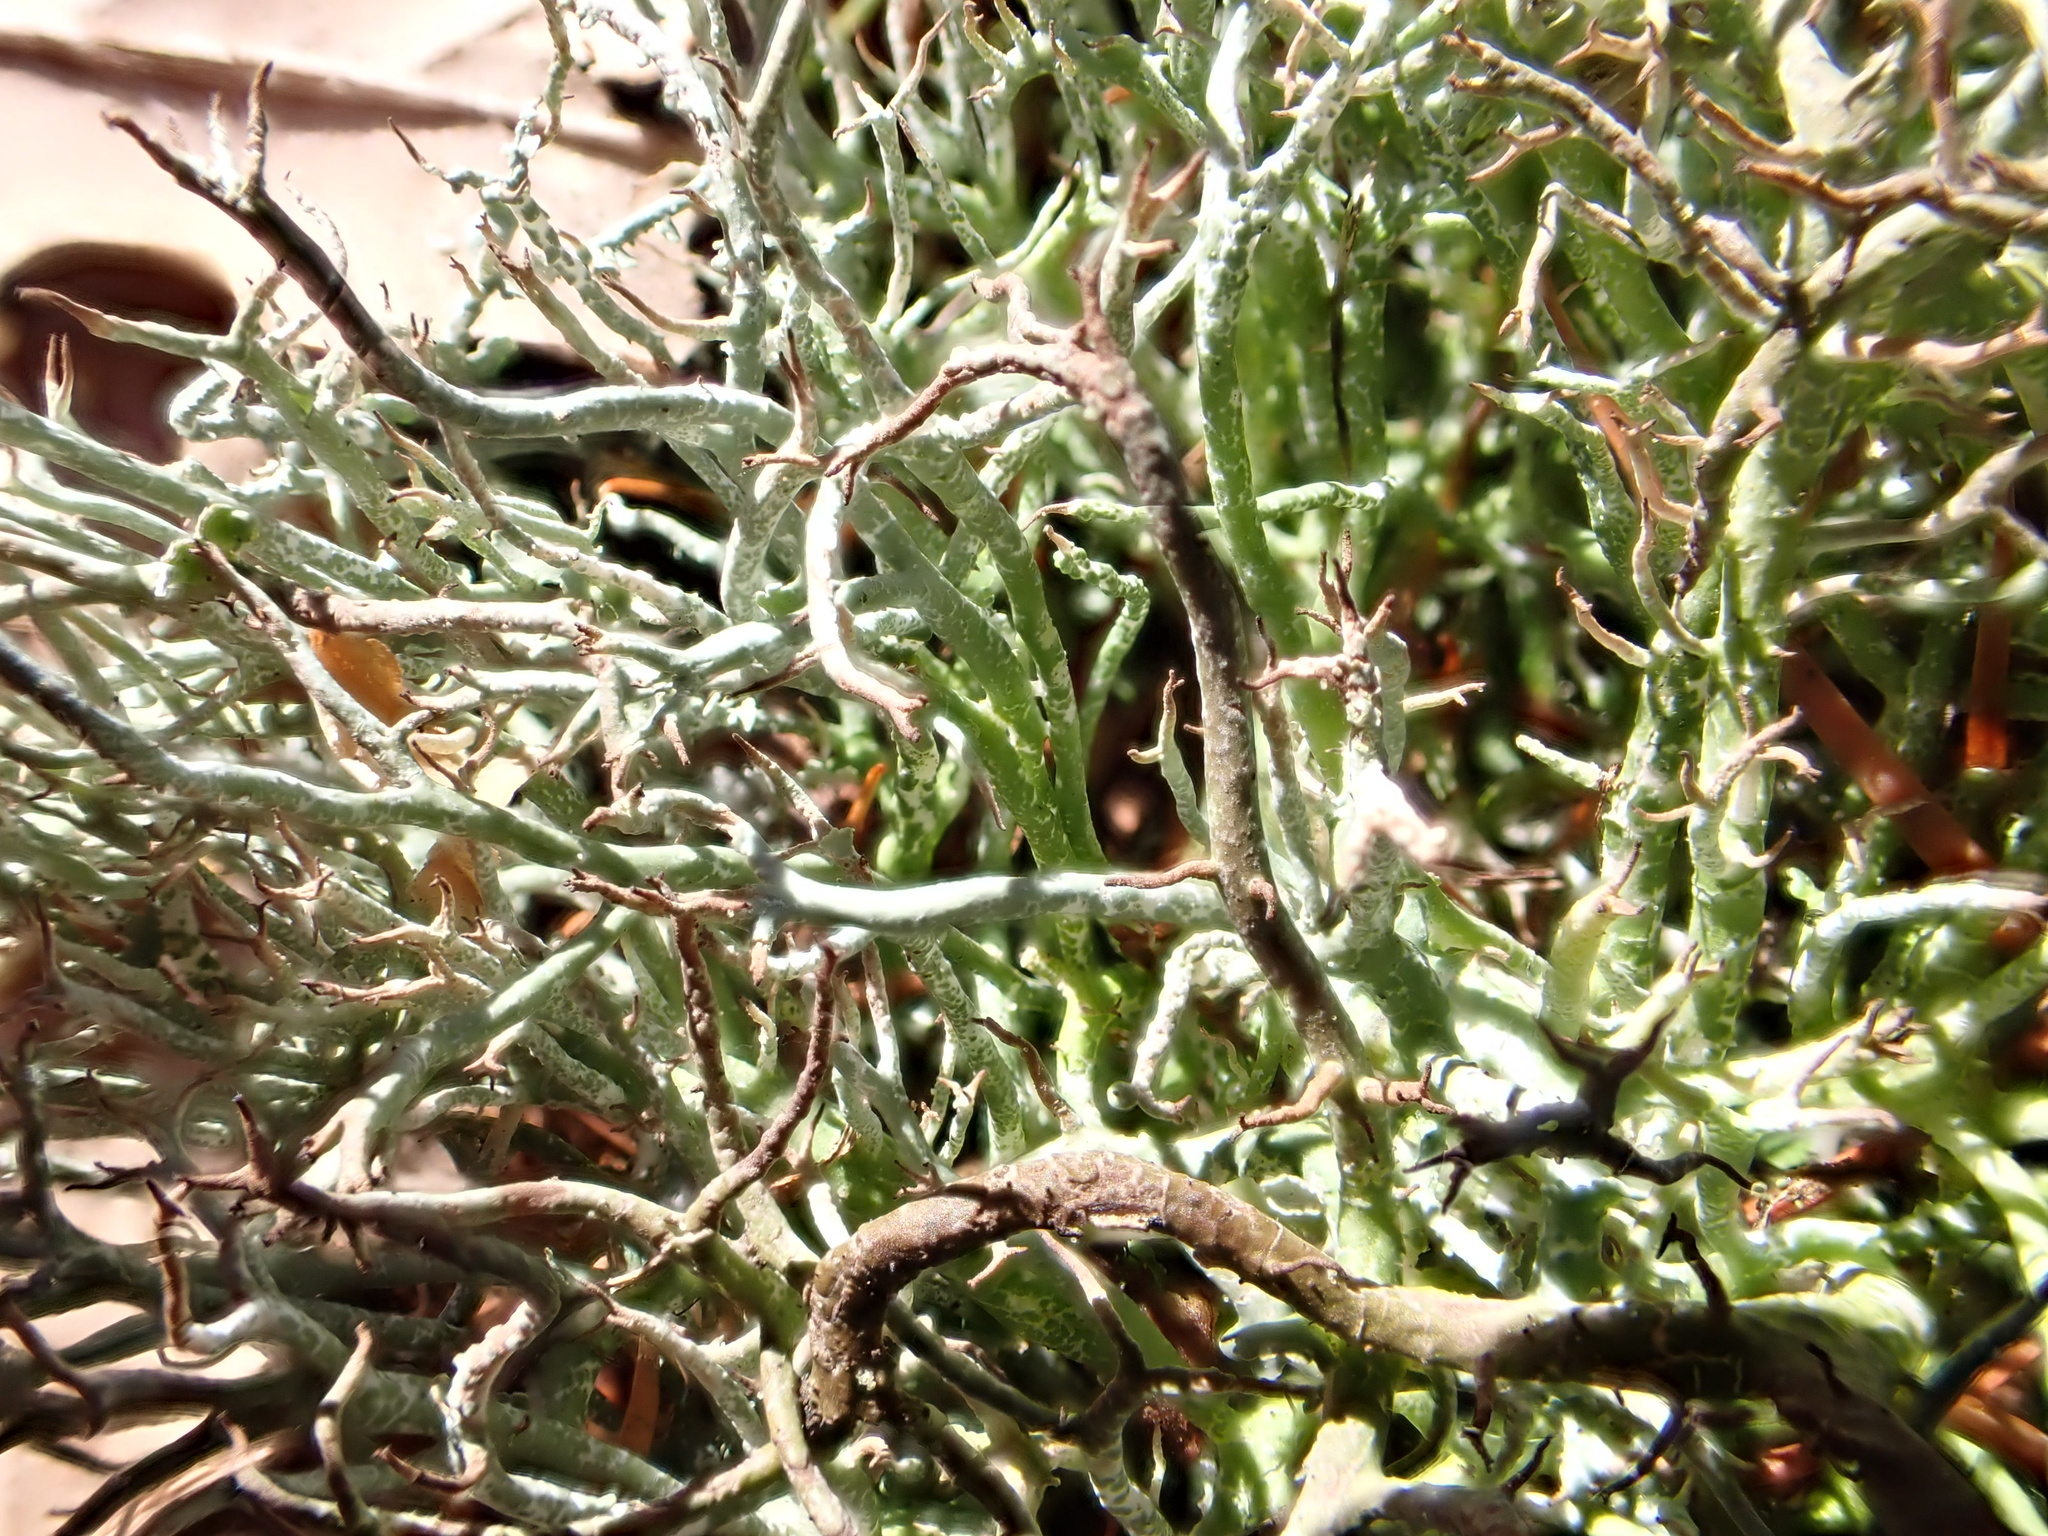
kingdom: Fungi
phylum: Ascomycota
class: Lecanoromycetes
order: Lecanorales
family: Cladoniaceae
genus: Cladonia
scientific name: Cladonia furcata
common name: Many-forked cladonia
